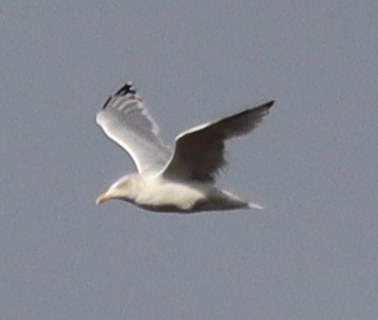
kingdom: Animalia
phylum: Chordata
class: Aves
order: Charadriiformes
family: Laridae
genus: Larus
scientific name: Larus argentatus
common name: Herring gull
